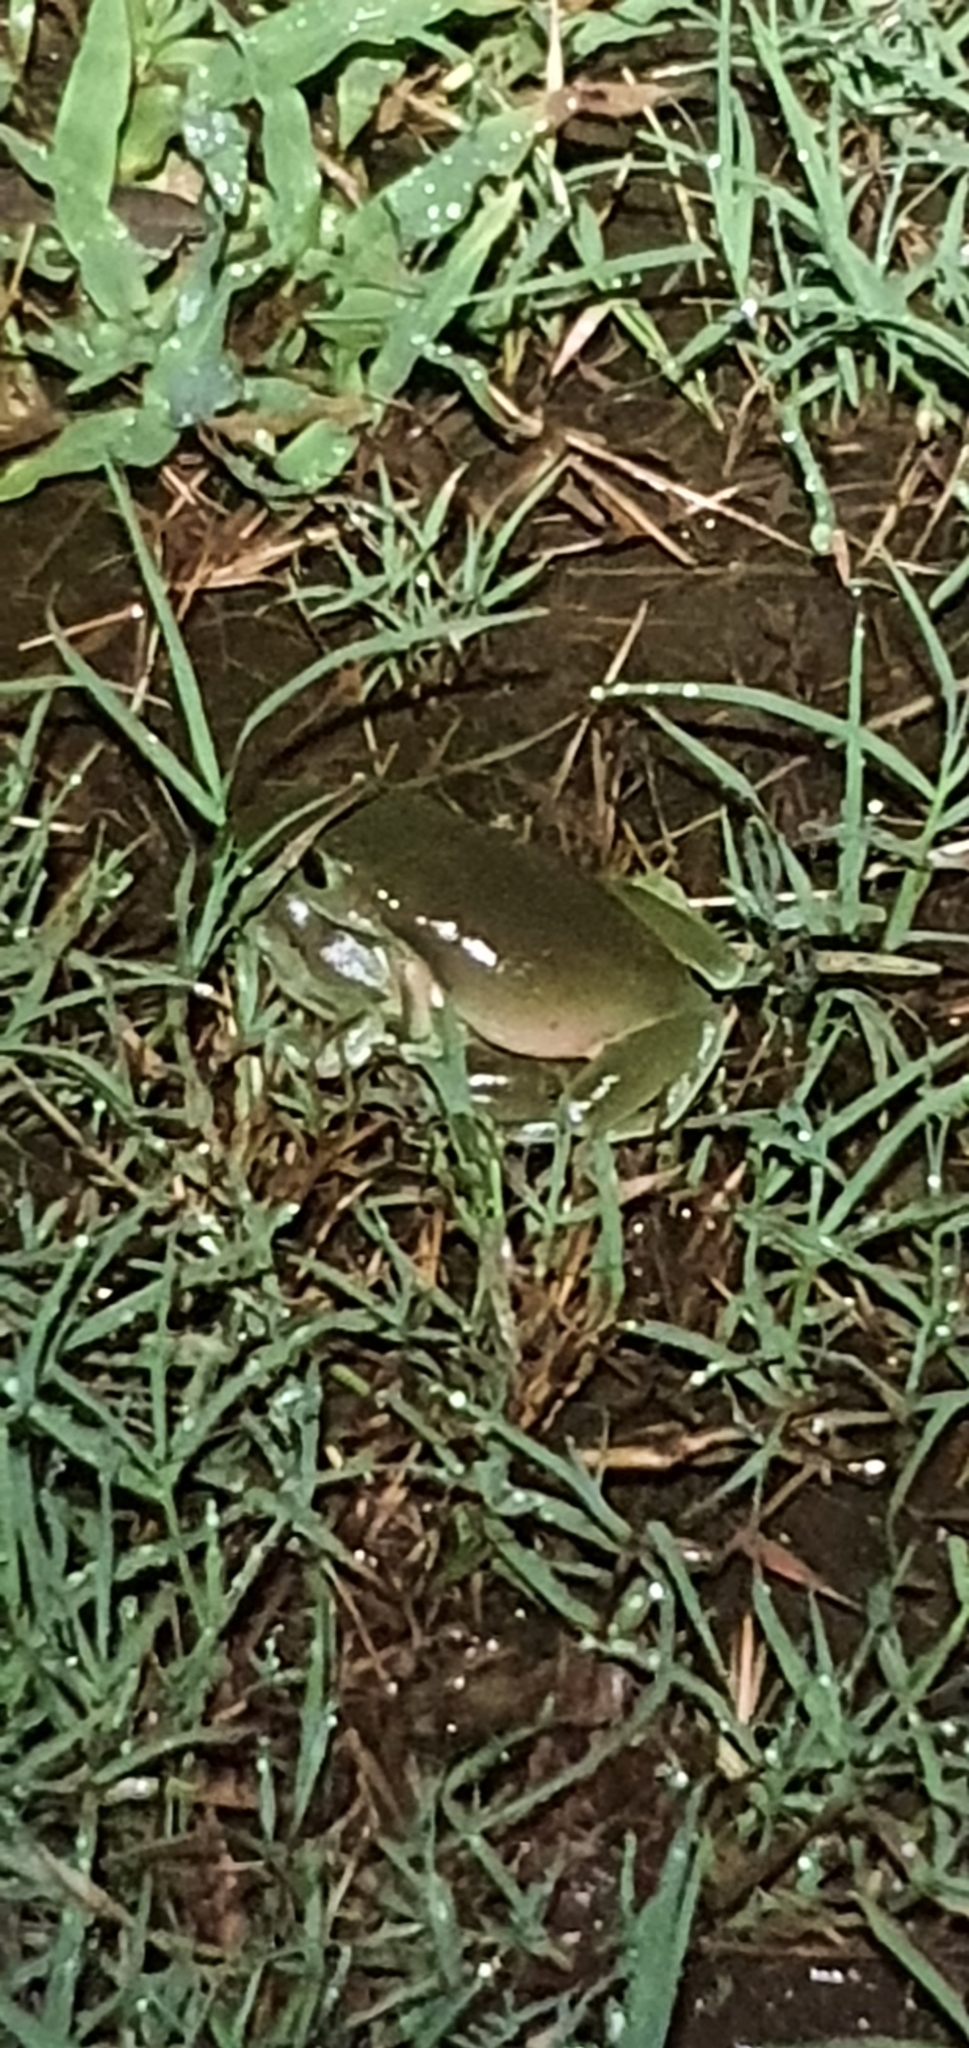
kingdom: Animalia
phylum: Chordata
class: Amphibia
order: Anura
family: Pelodryadidae
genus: Ranoidea
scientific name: Ranoidea caerulea
